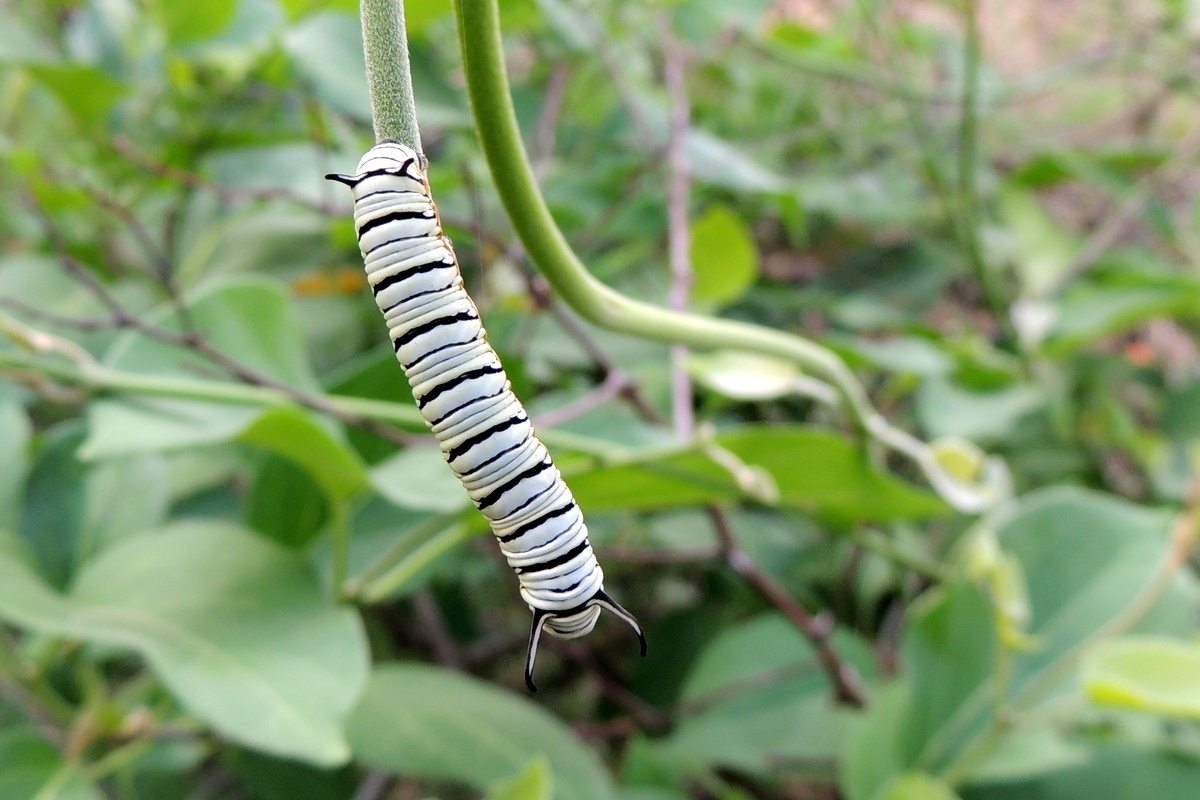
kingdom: Animalia
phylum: Arthropoda
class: Insecta
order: Lepidoptera
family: Nymphalidae
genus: Tirumala
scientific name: Tirumala limniace
